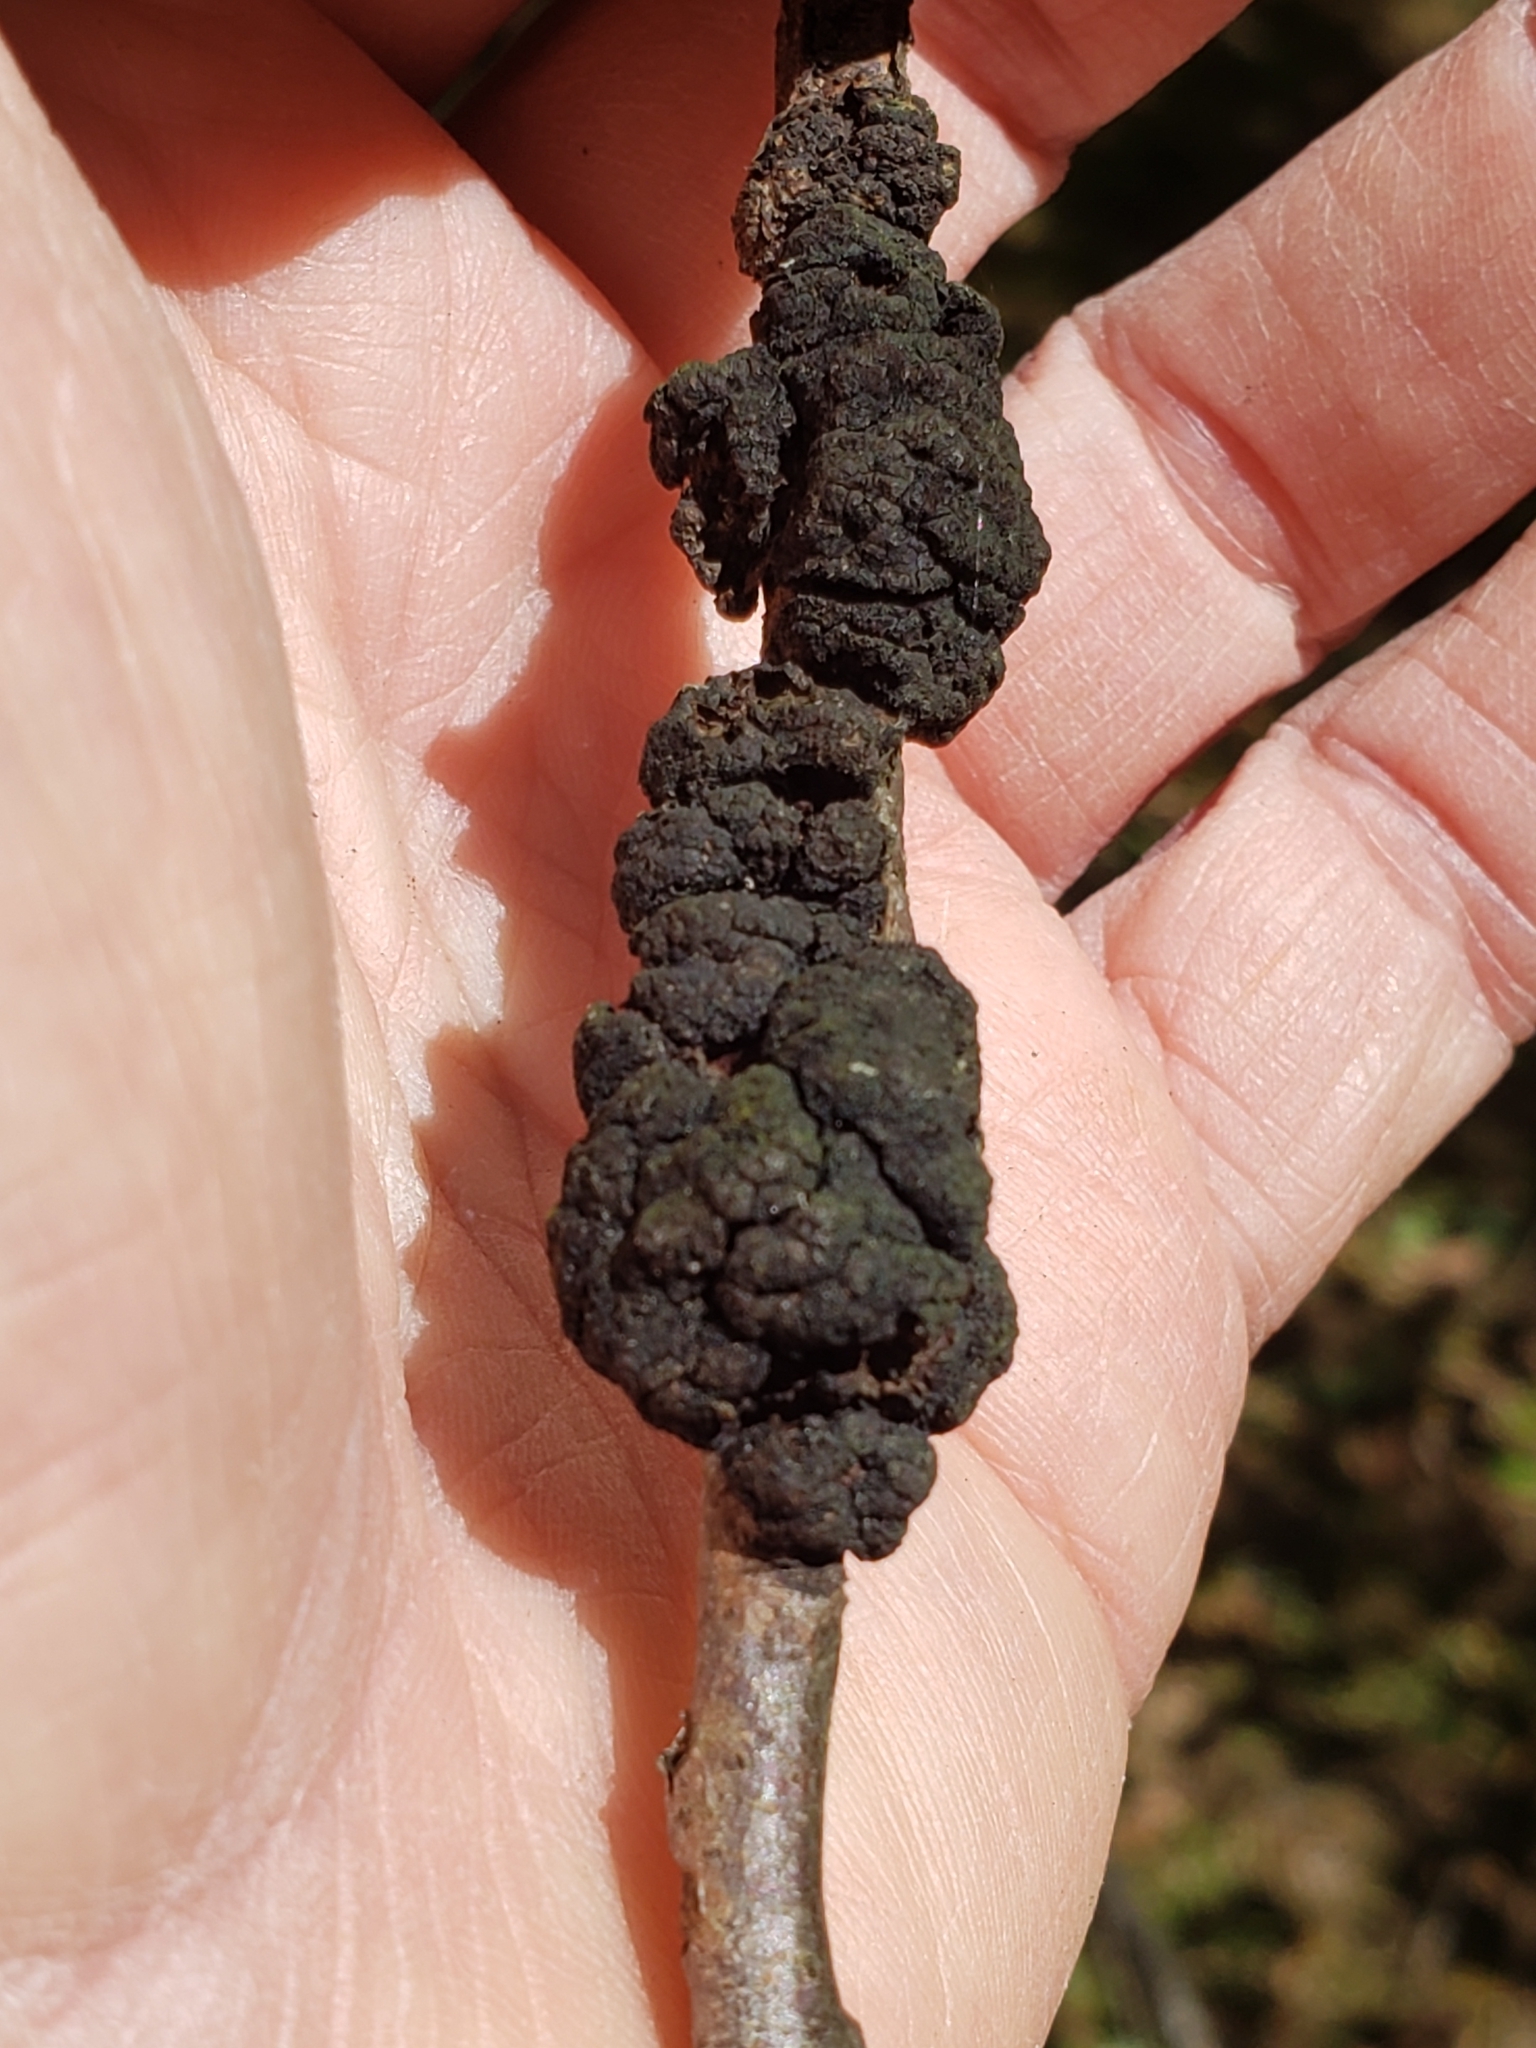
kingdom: Fungi
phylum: Ascomycota
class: Dothideomycetes
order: Venturiales
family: Venturiaceae
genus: Apiosporina
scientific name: Apiosporina morbosa
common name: Black knot
